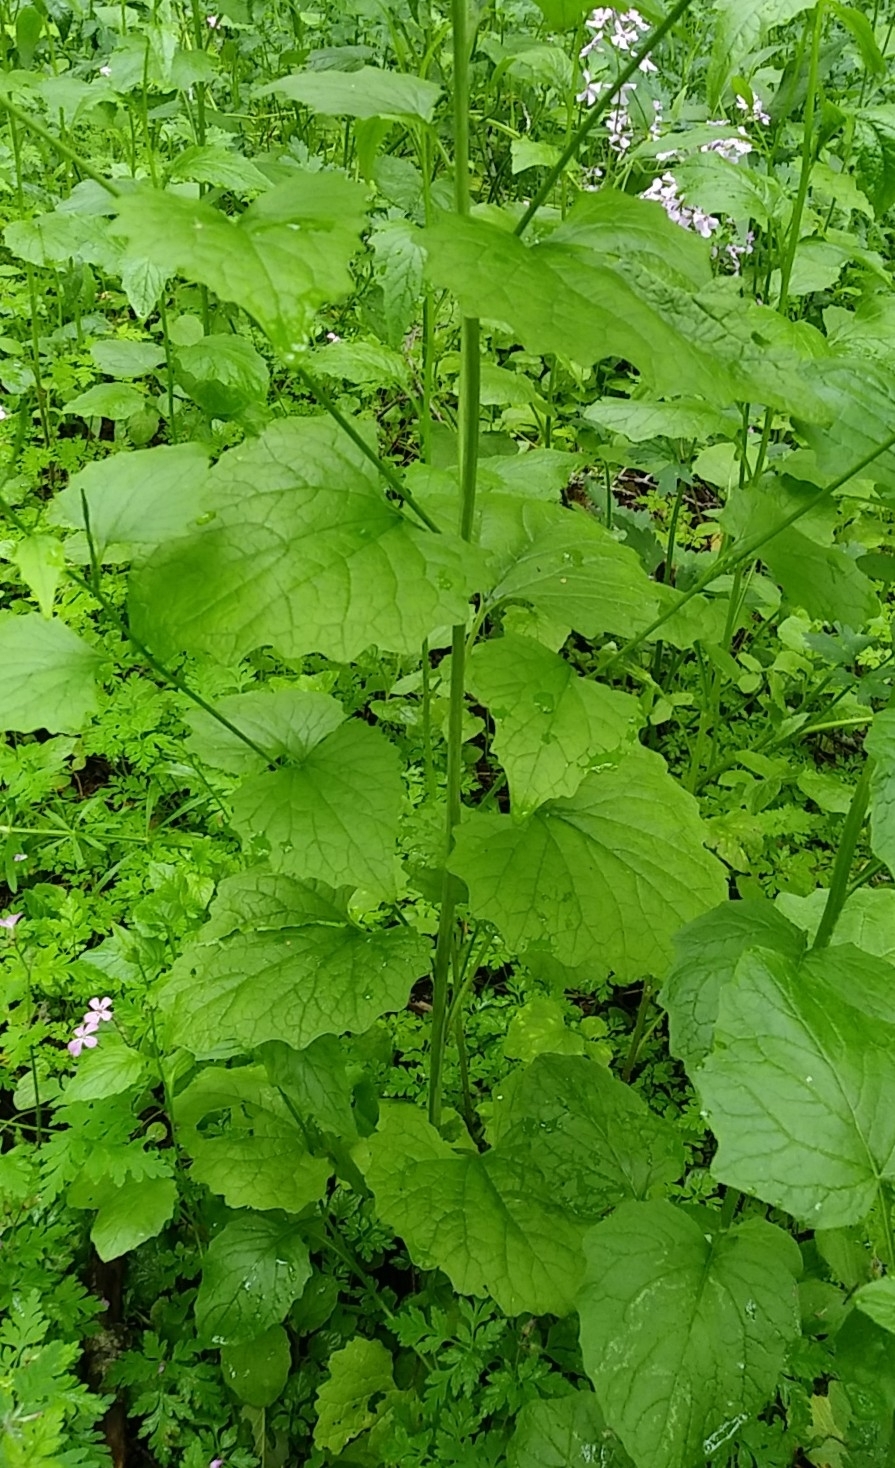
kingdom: Plantae
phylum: Tracheophyta
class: Magnoliopsida
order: Brassicales
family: Brassicaceae
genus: Alliaria
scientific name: Alliaria petiolata
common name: Garlic mustard
